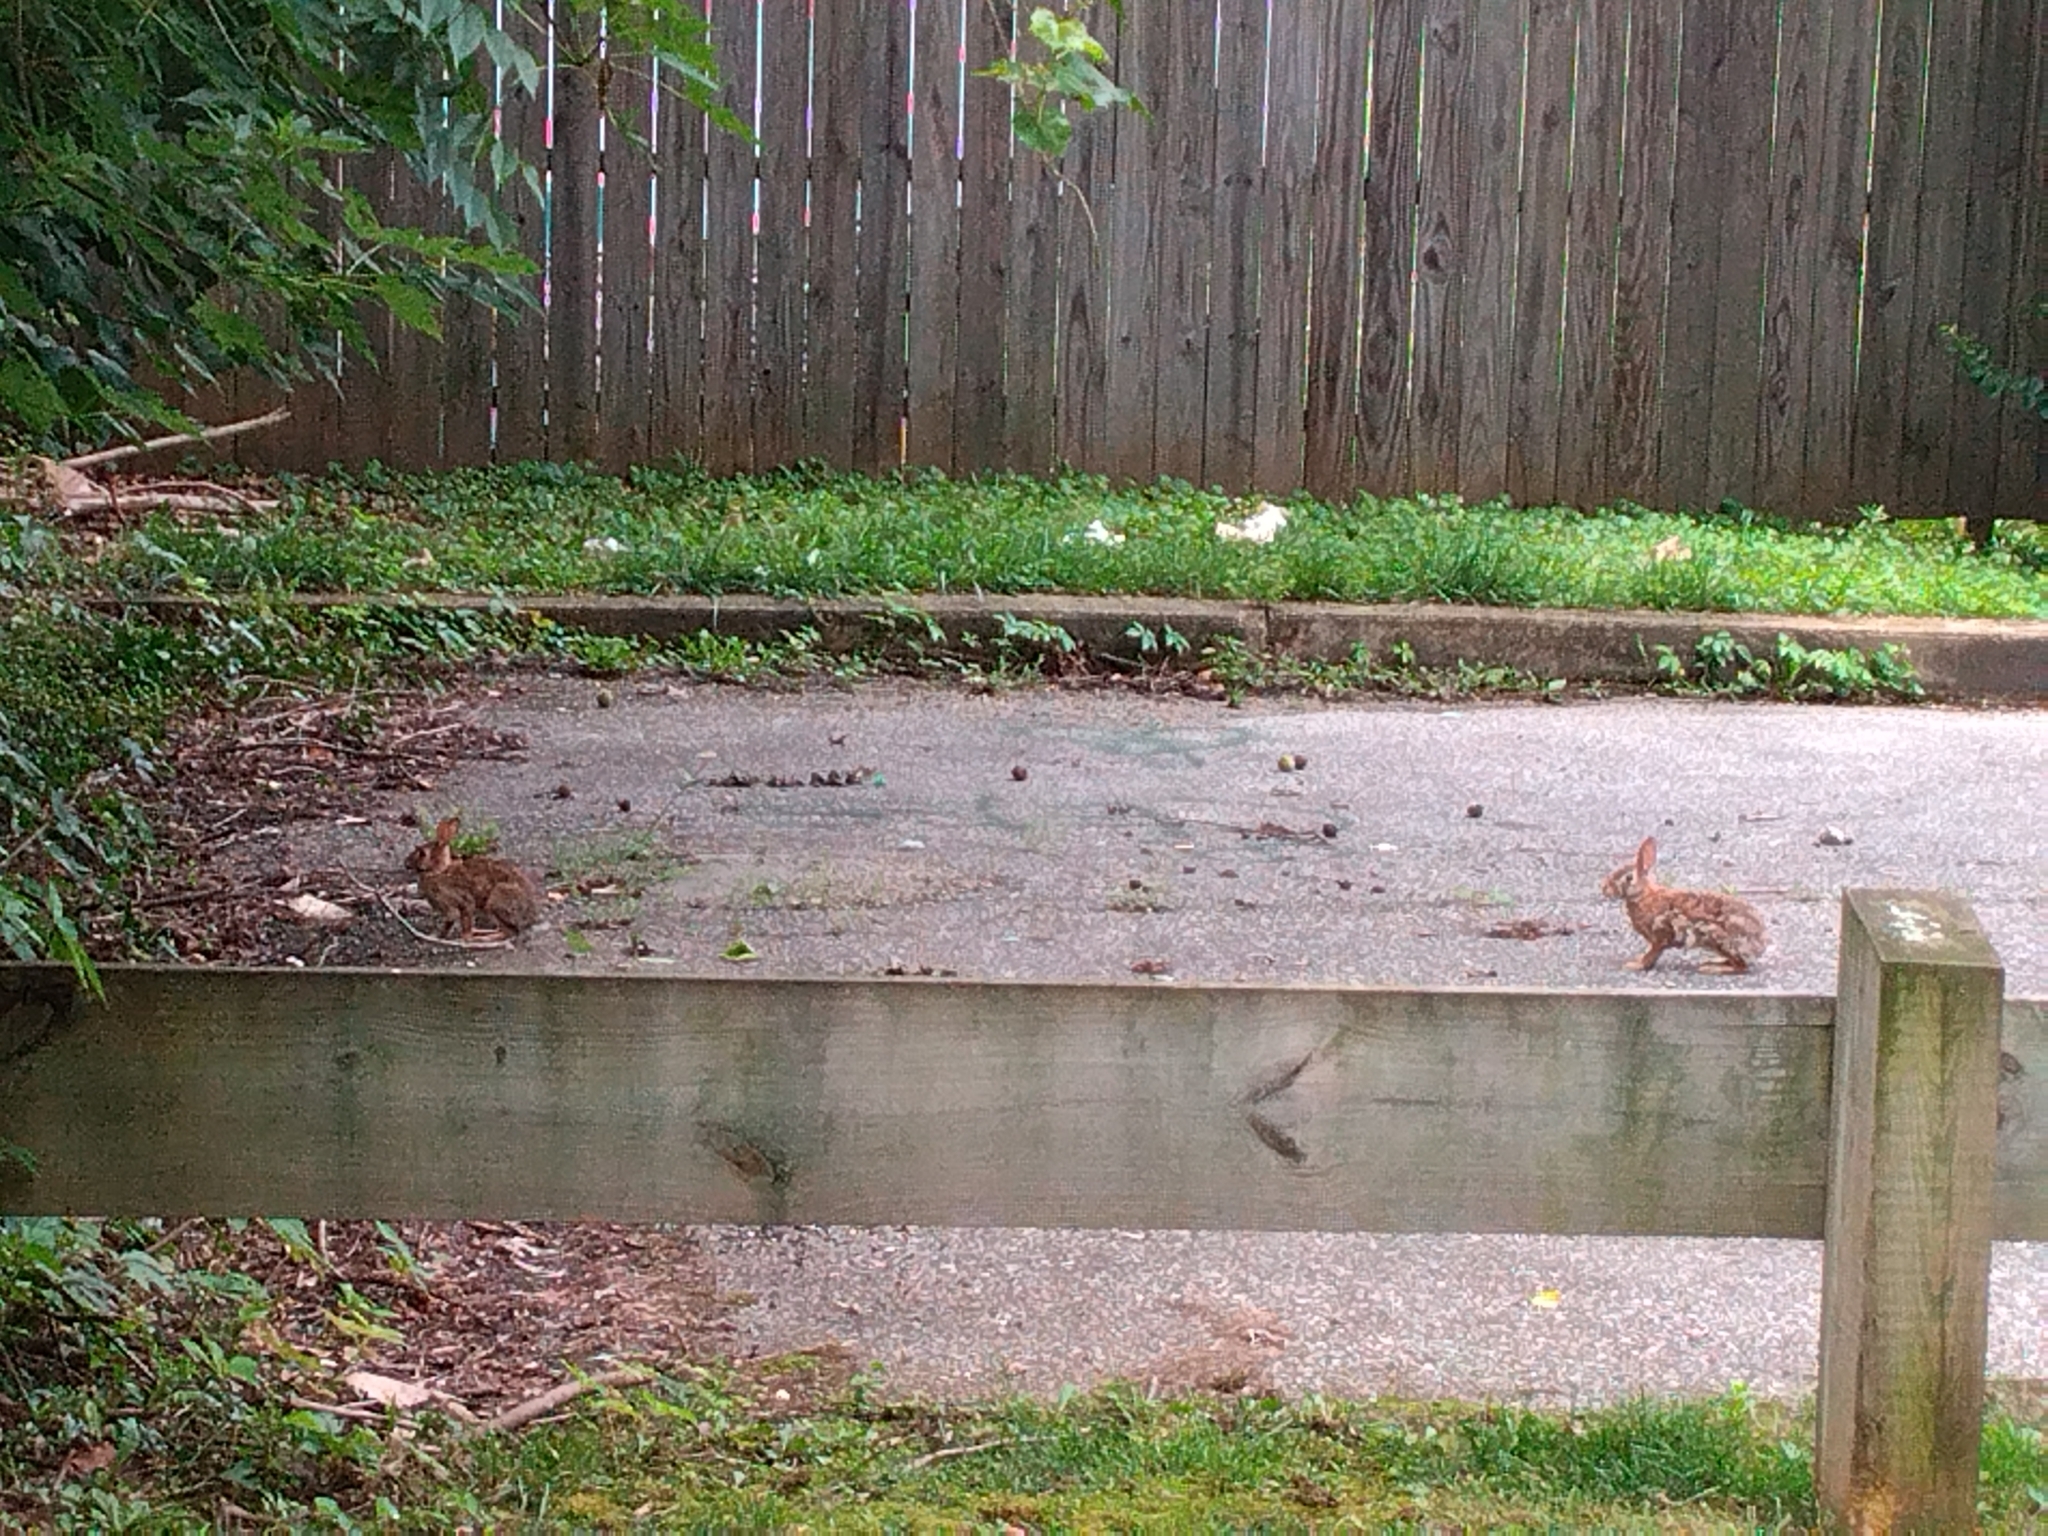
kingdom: Animalia
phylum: Chordata
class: Mammalia
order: Lagomorpha
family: Leporidae
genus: Sylvilagus
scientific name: Sylvilagus floridanus
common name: Eastern cottontail
